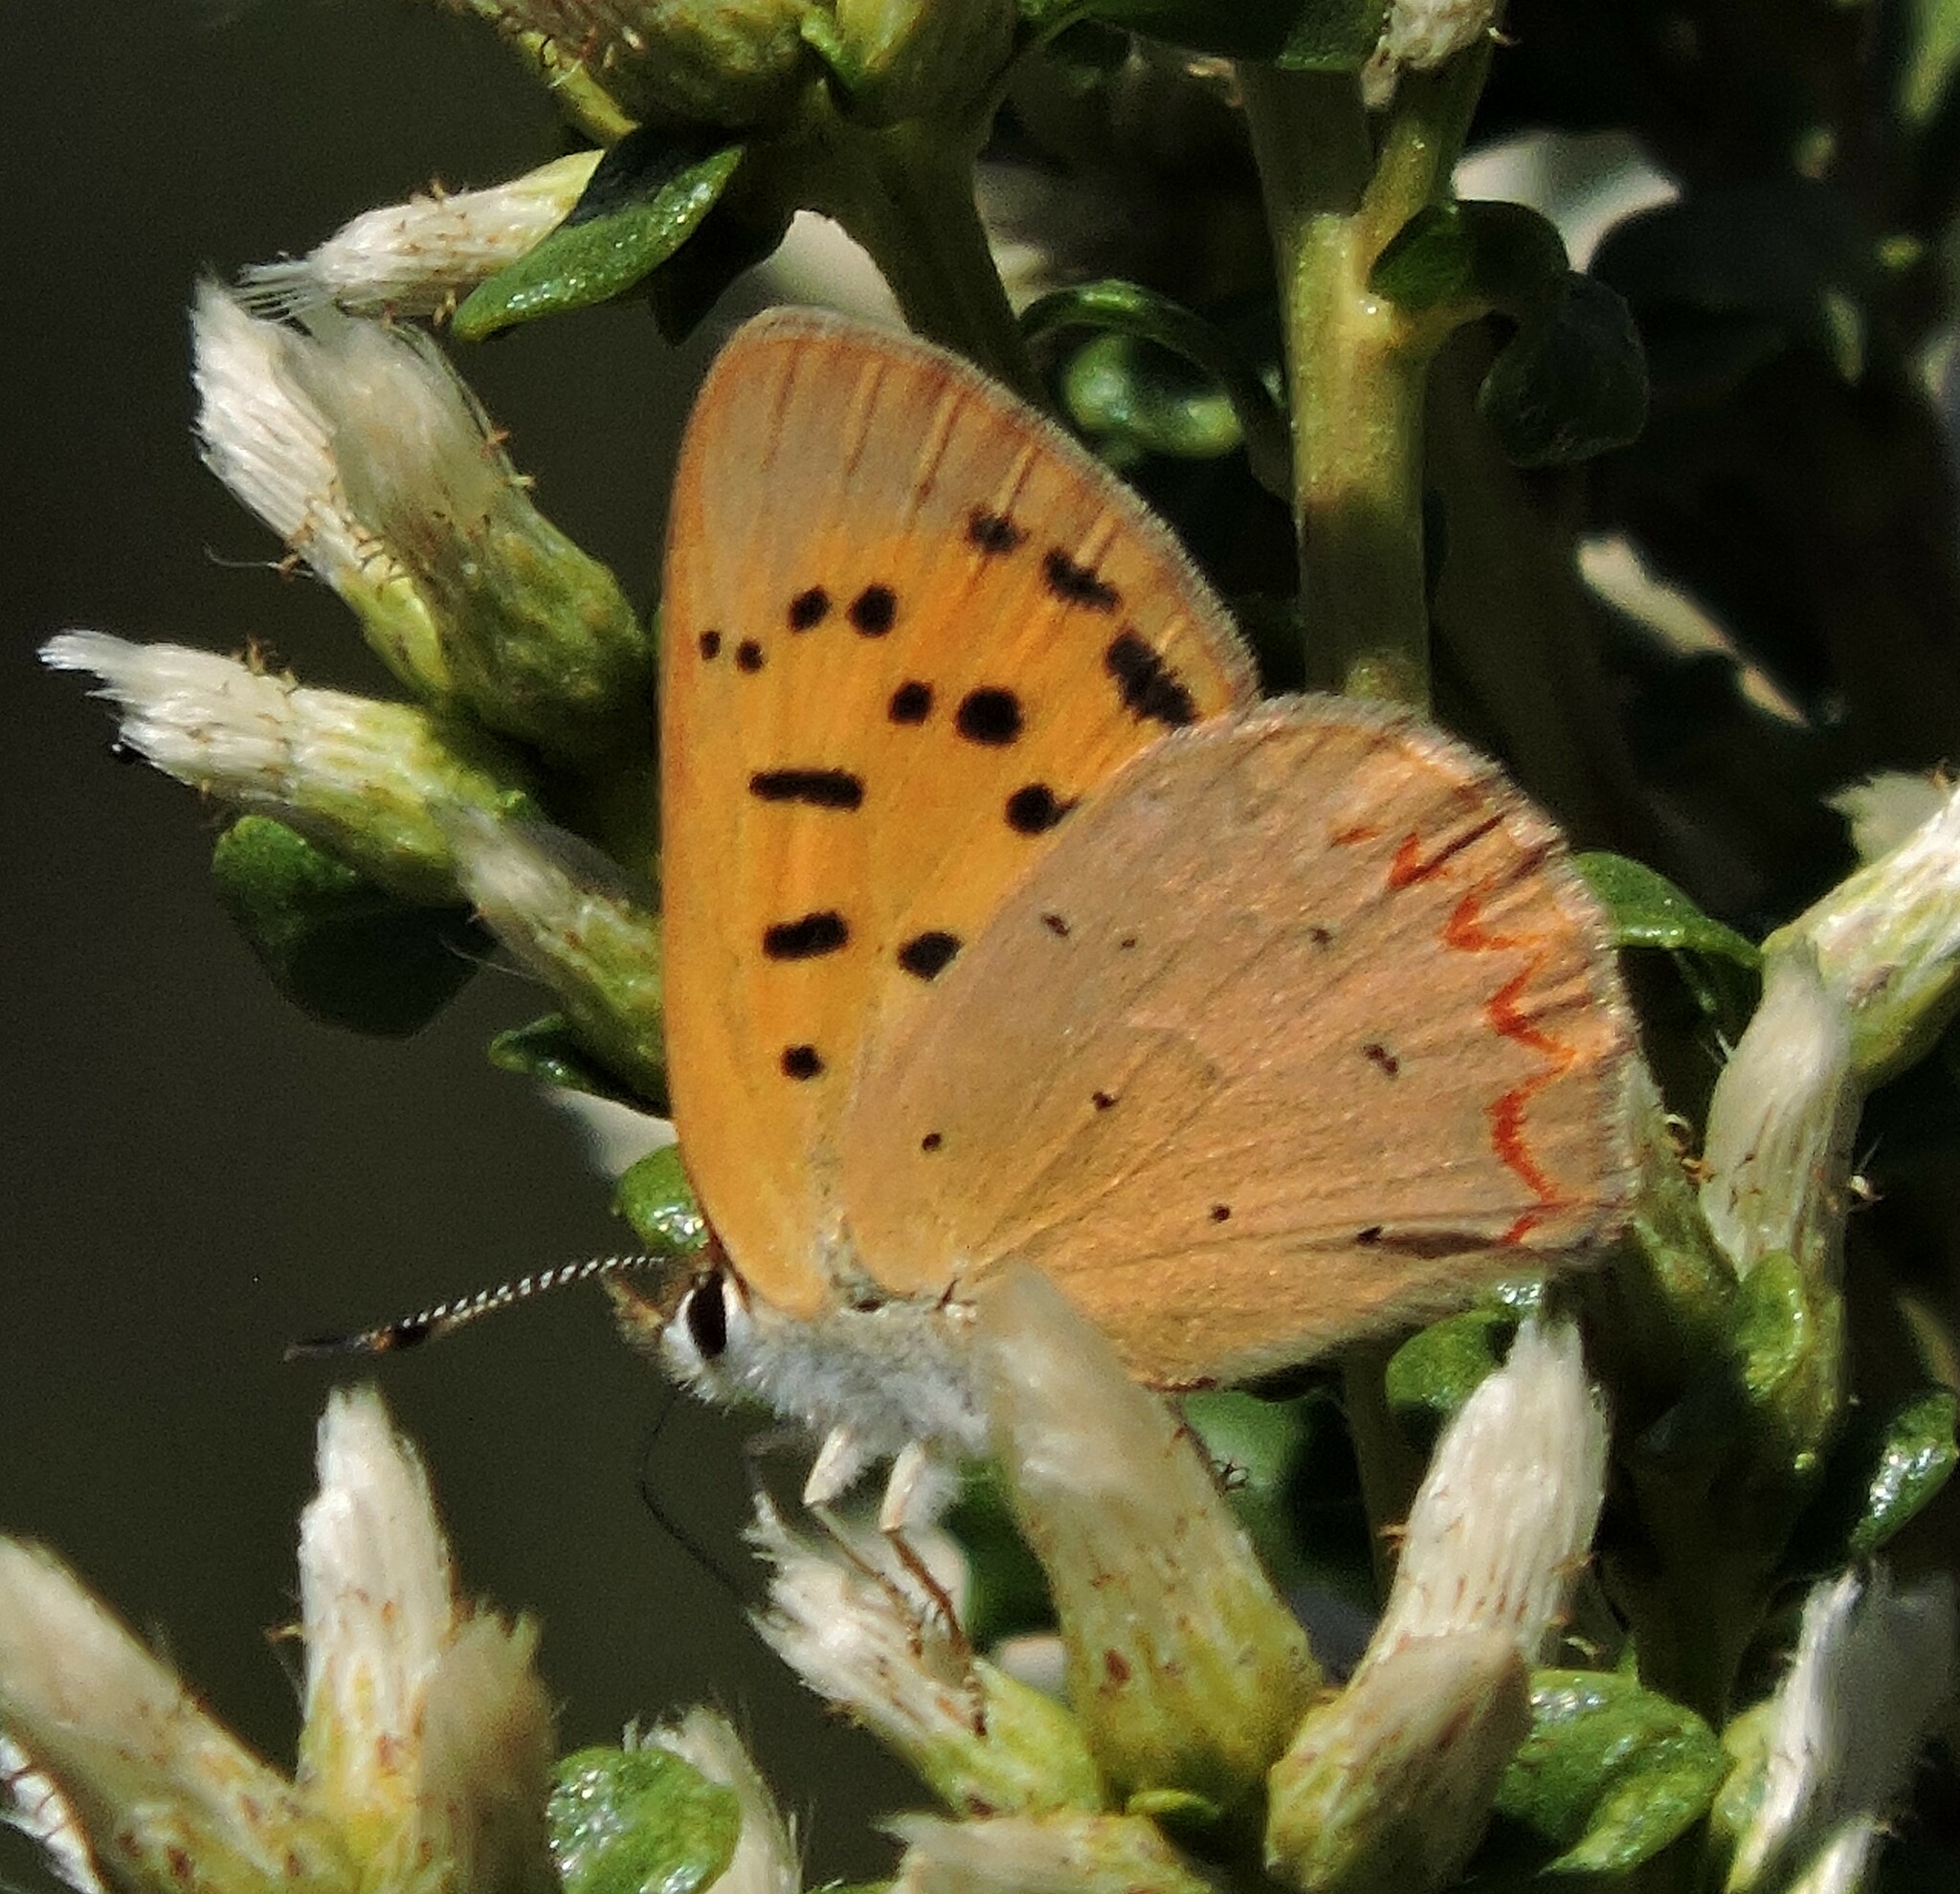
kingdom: Animalia
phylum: Arthropoda
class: Insecta
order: Lepidoptera
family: Lycaenidae
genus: Tharsalea
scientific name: Tharsalea helloides
